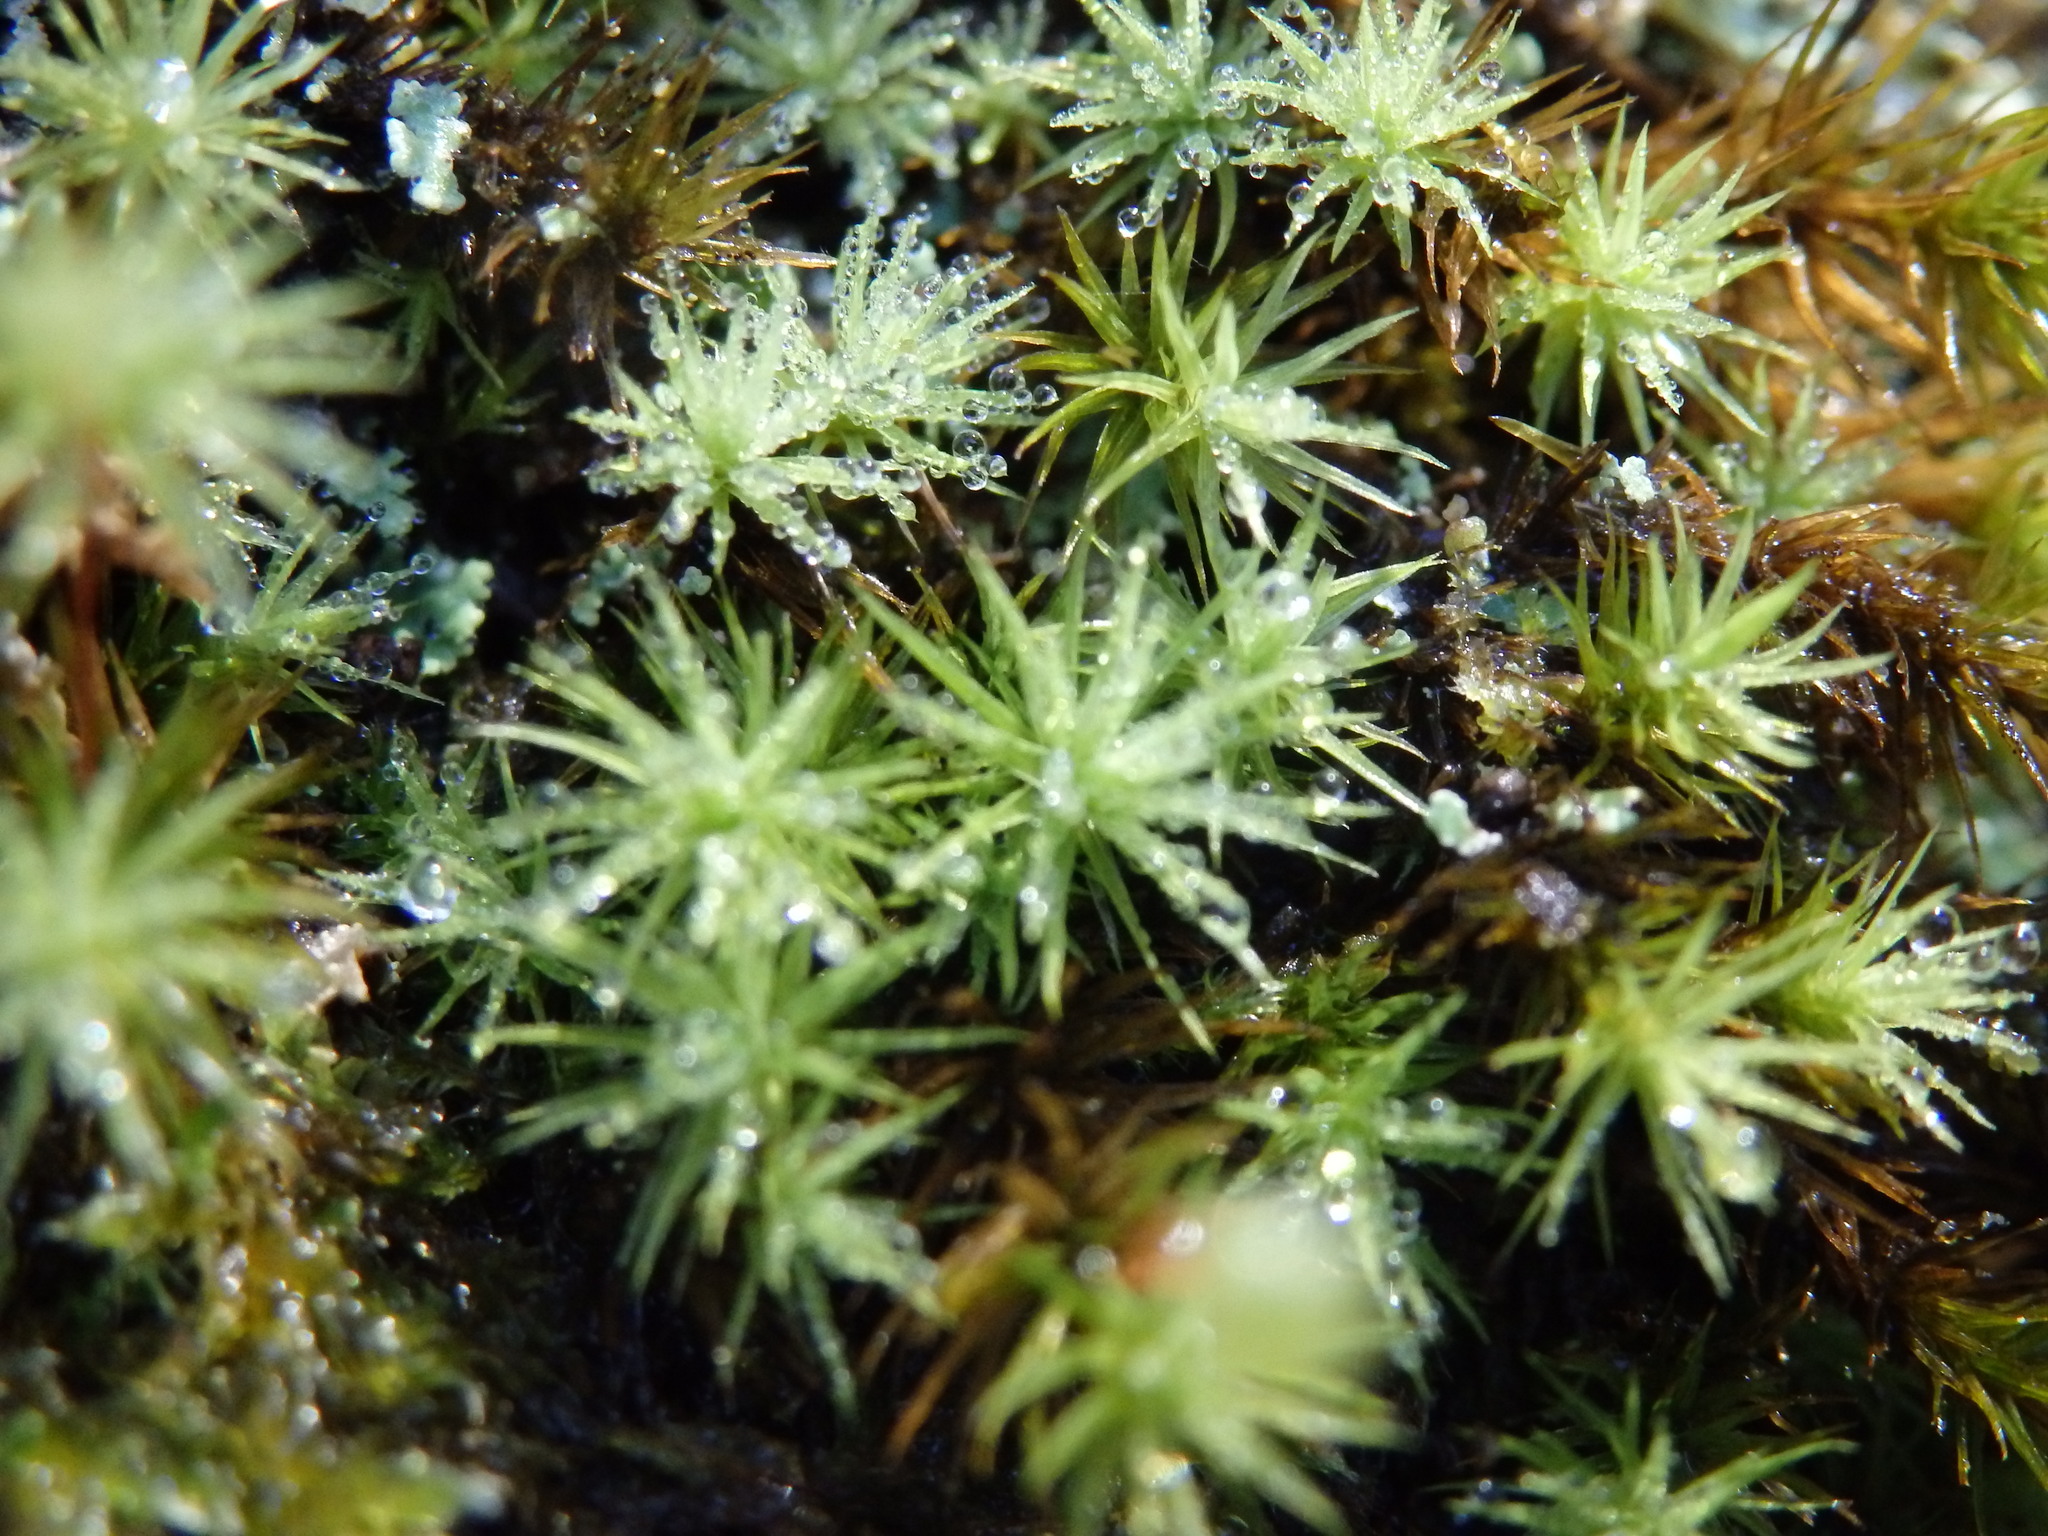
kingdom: Plantae
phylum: Bryophyta
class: Bryopsida
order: Bartramiales
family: Bartramiaceae
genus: Bartramia
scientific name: Bartramia ithyphylla
